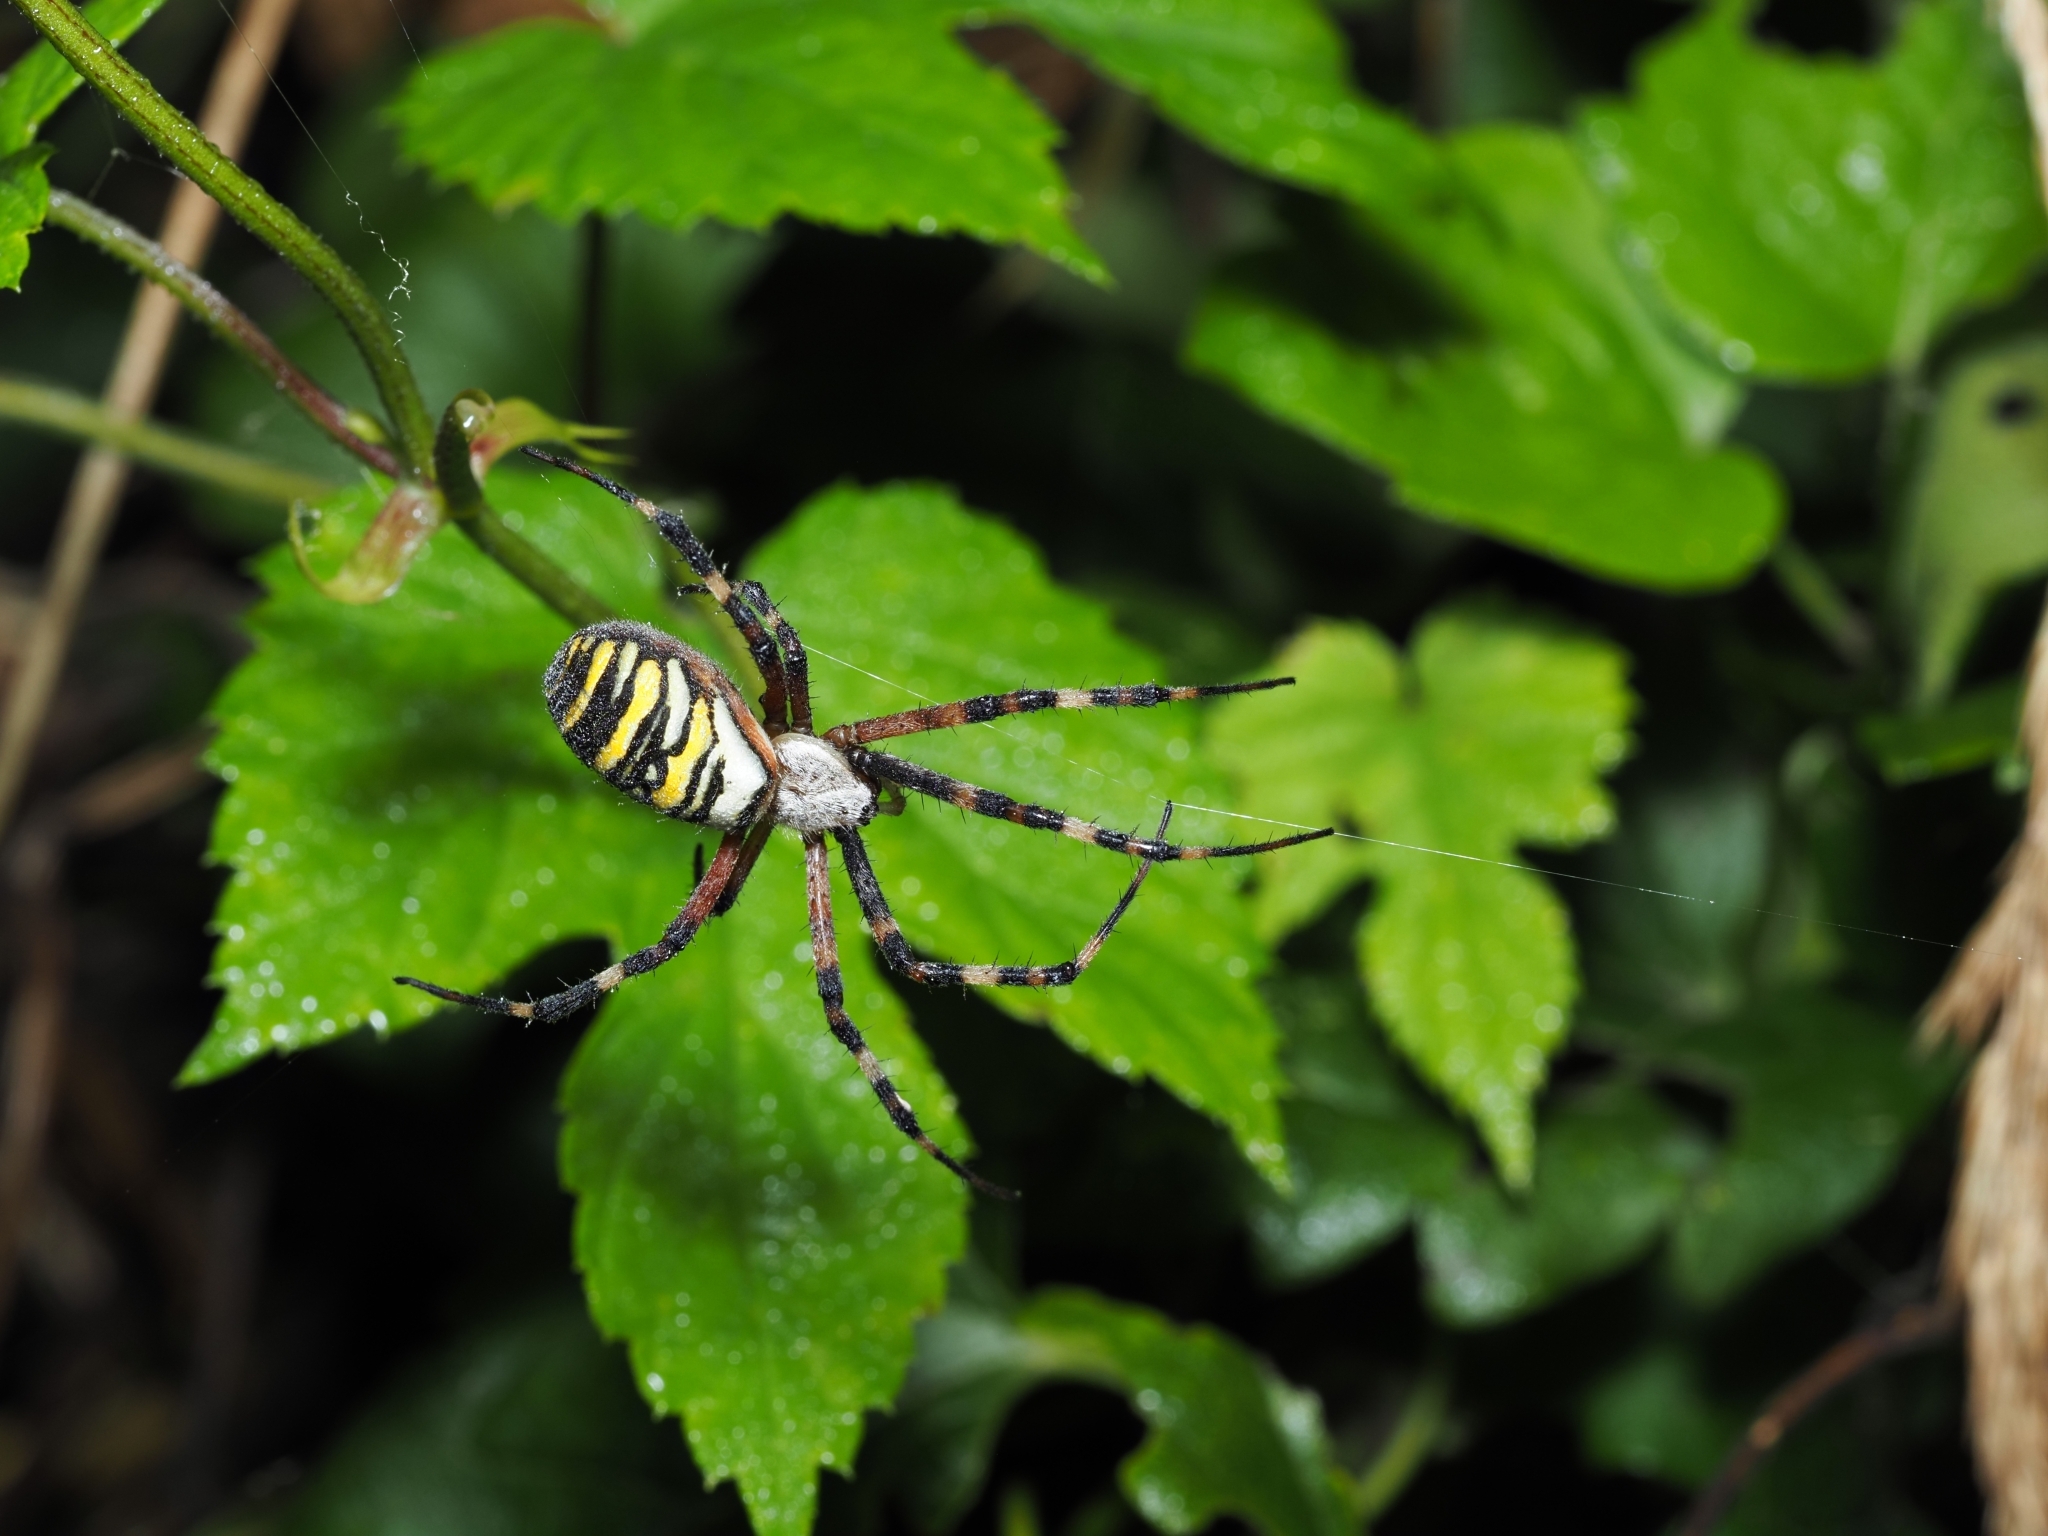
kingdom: Animalia
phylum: Arthropoda
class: Arachnida
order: Araneae
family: Araneidae
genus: Argiope
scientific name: Argiope bruennichi
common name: Wasp spider
